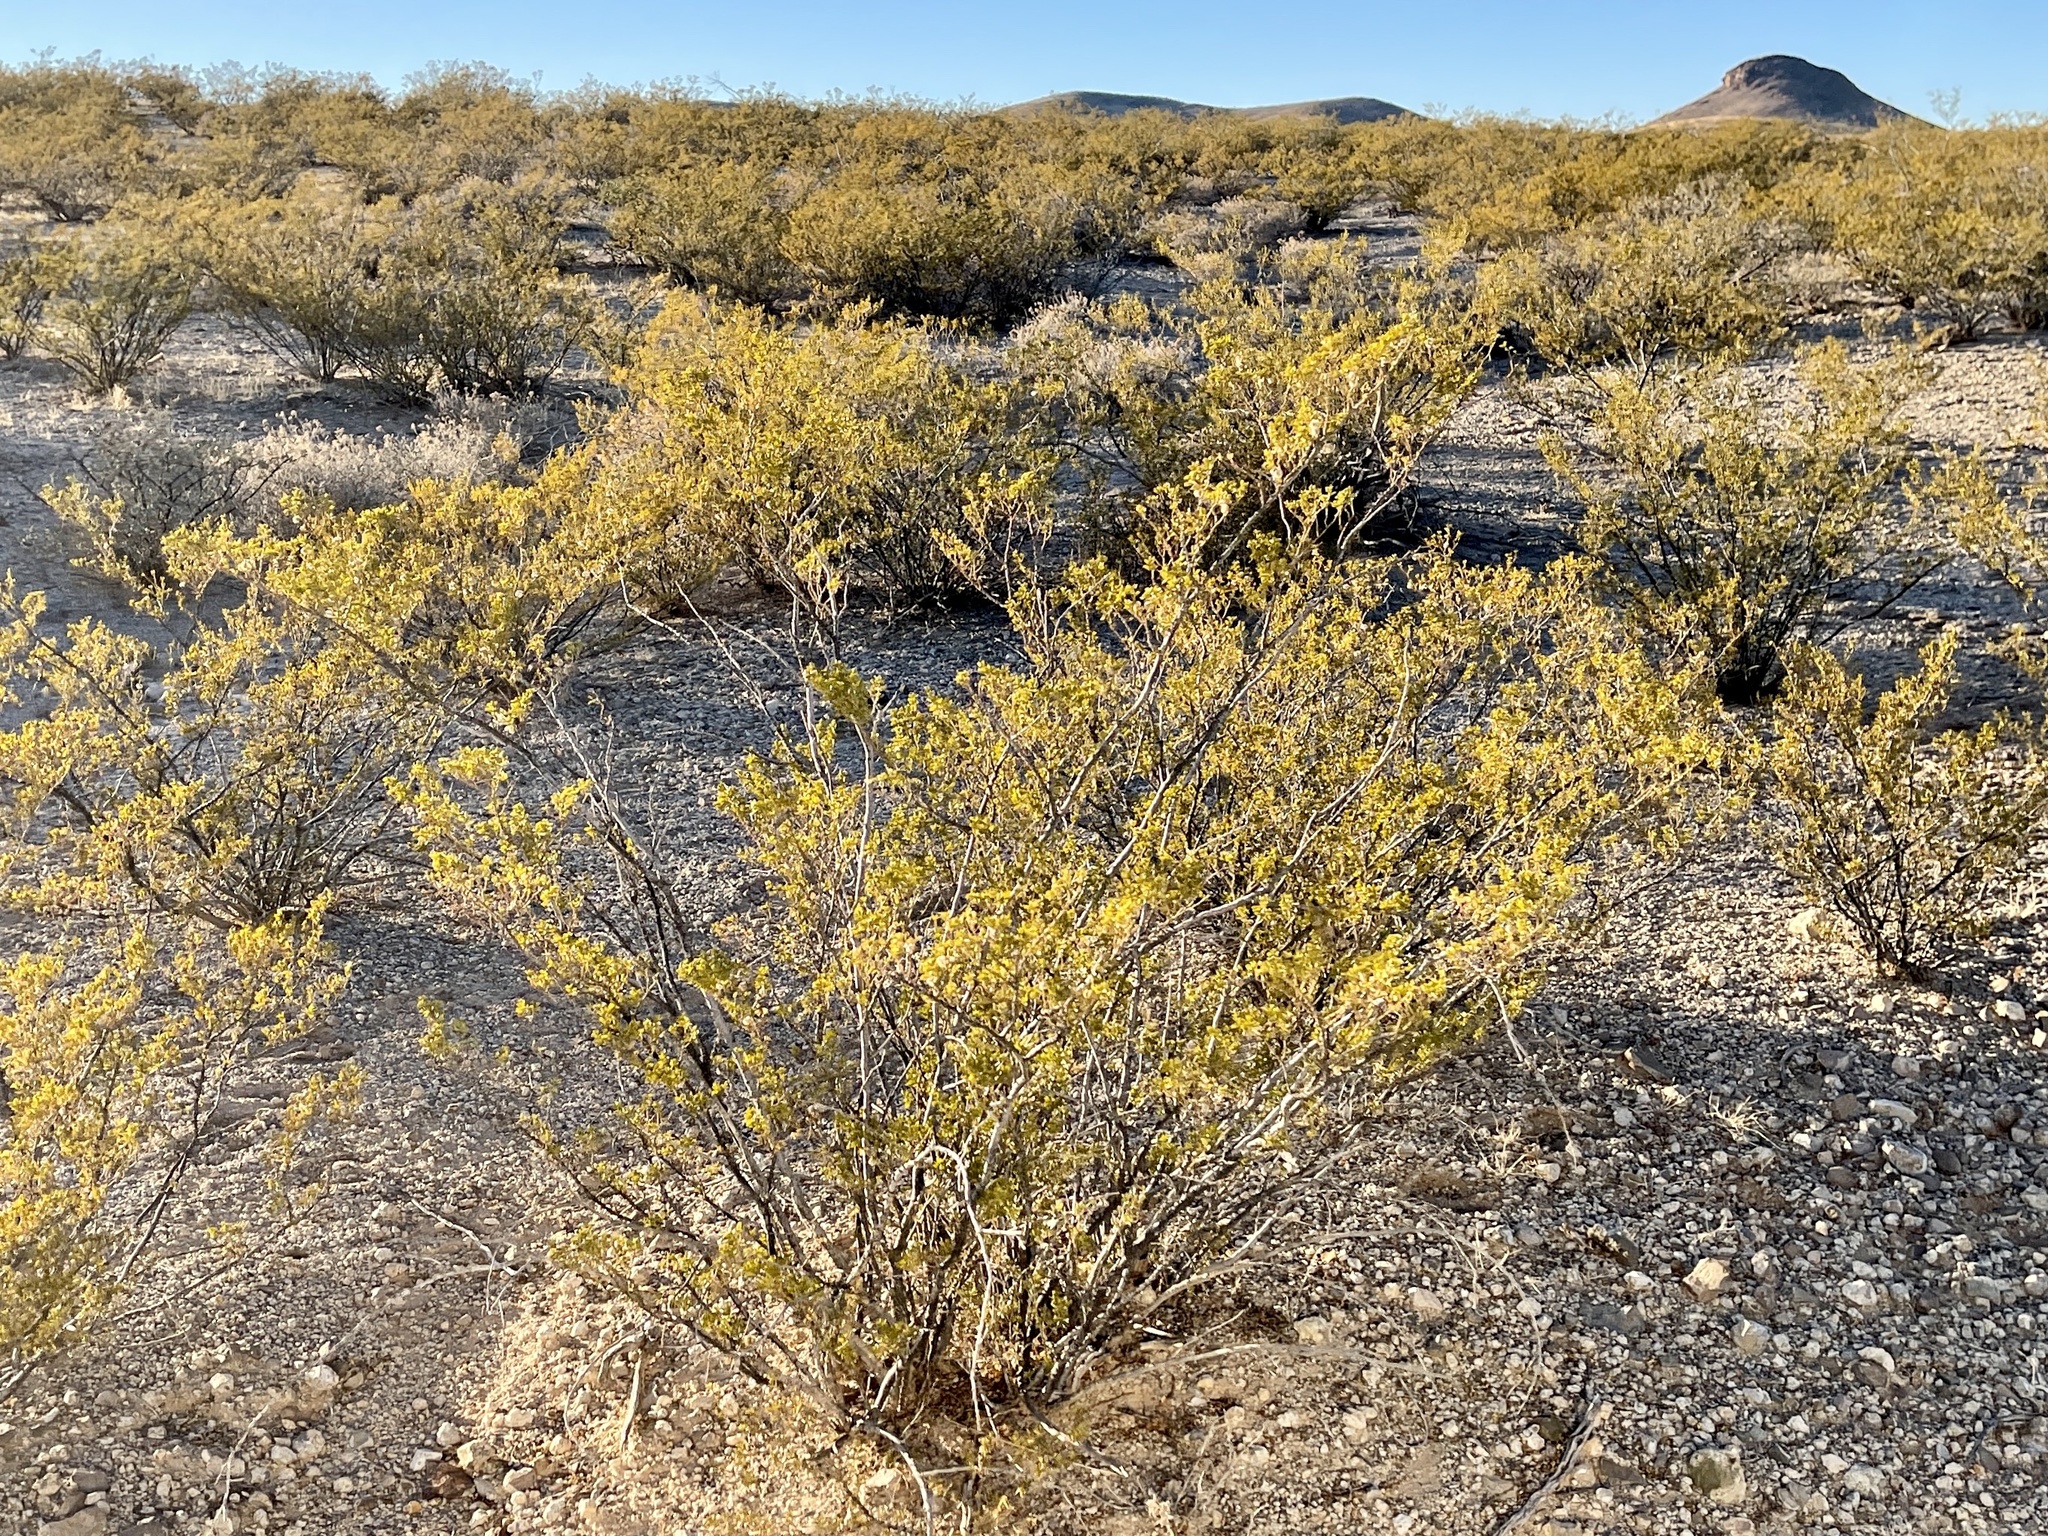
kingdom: Plantae
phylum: Tracheophyta
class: Magnoliopsida
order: Zygophyllales
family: Zygophyllaceae
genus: Larrea
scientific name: Larrea tridentata
